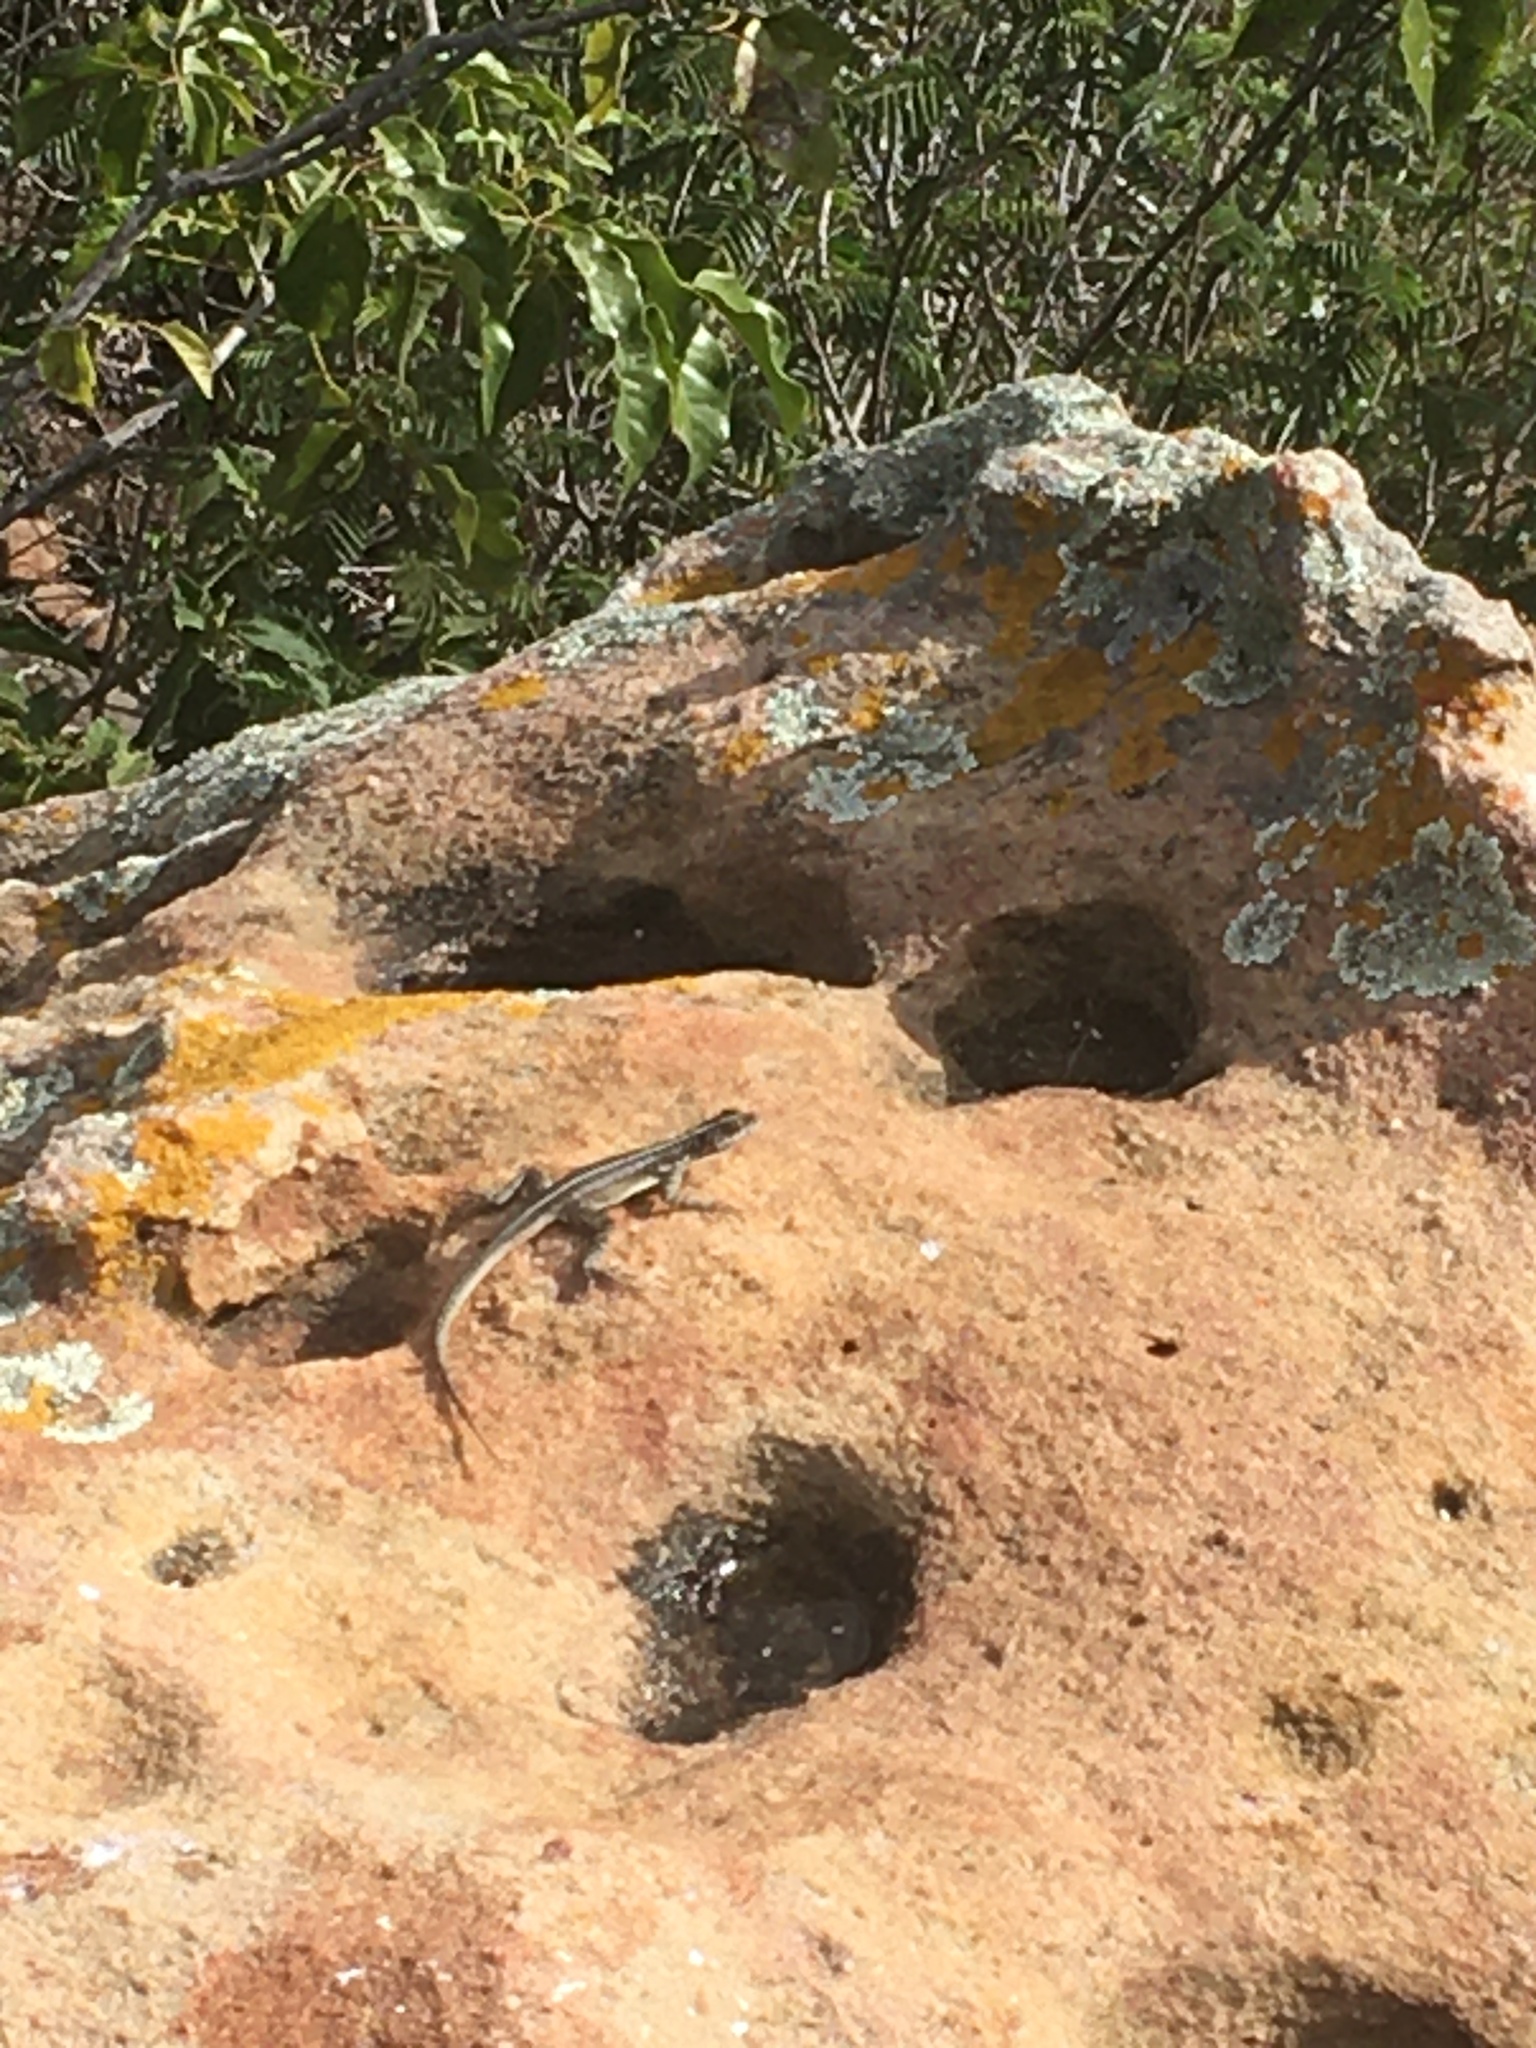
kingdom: Animalia
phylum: Chordata
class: Squamata
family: Tropiduridae
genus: Tropidurus
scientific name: Tropidurus semitaeniatus
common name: Striped lava lizard
